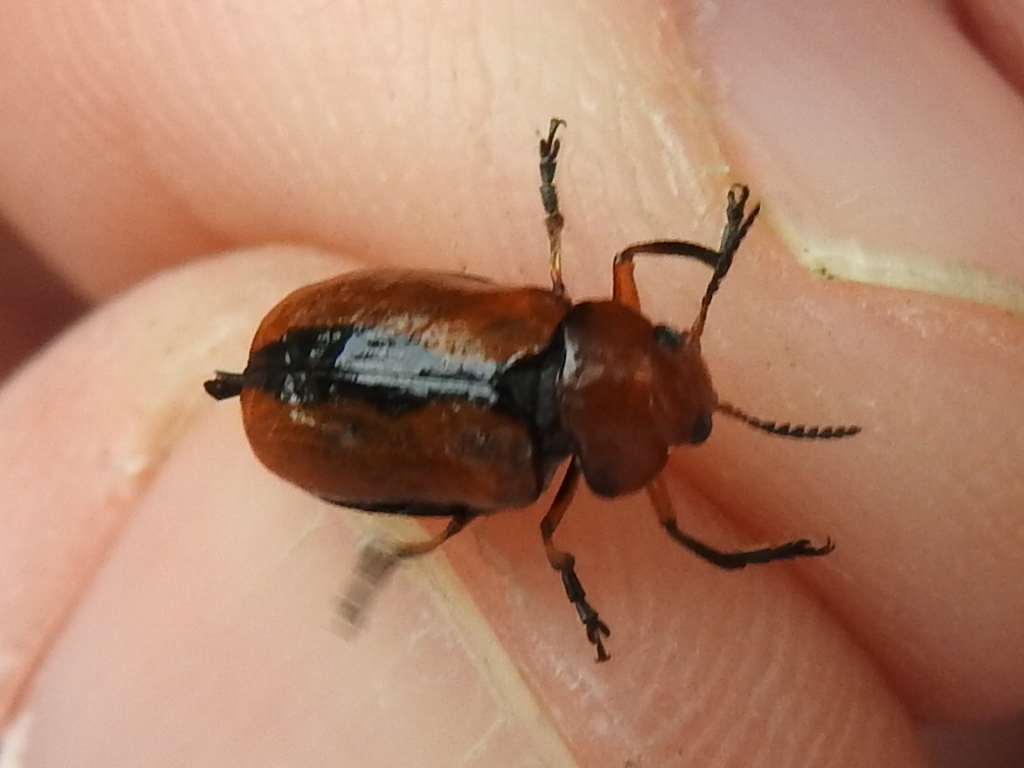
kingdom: Animalia
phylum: Arthropoda
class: Insecta
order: Coleoptera
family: Chrysomelidae
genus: Anomoea
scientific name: Anomoea laticlavia
